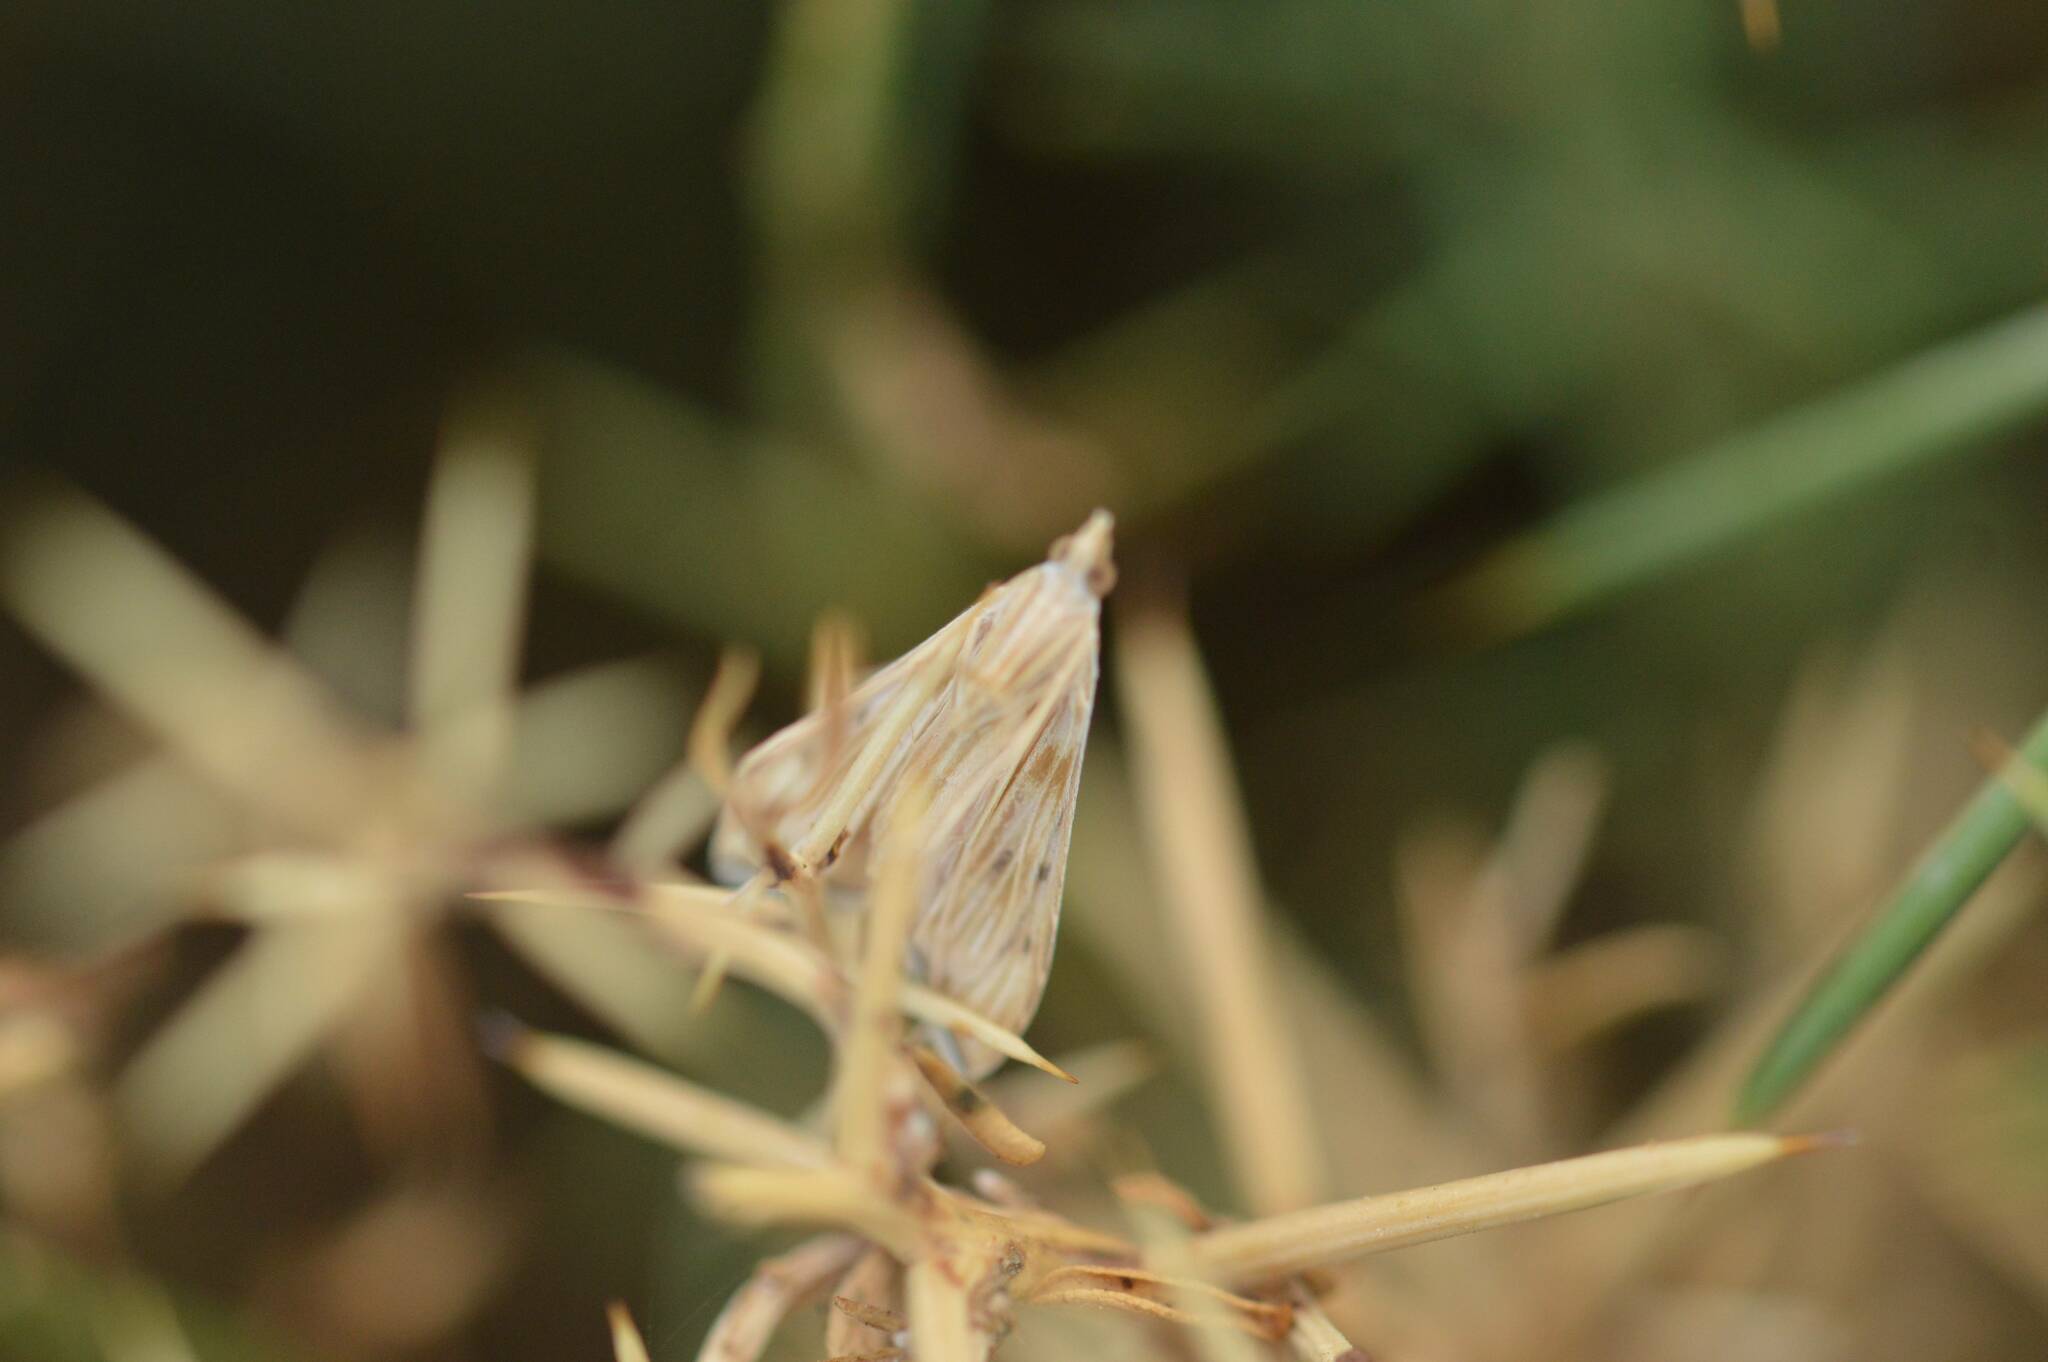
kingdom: Animalia
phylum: Arthropoda
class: Insecta
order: Lepidoptera
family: Crambidae
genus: Antigastra
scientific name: Antigastra catalaunalis
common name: Spanish dot
